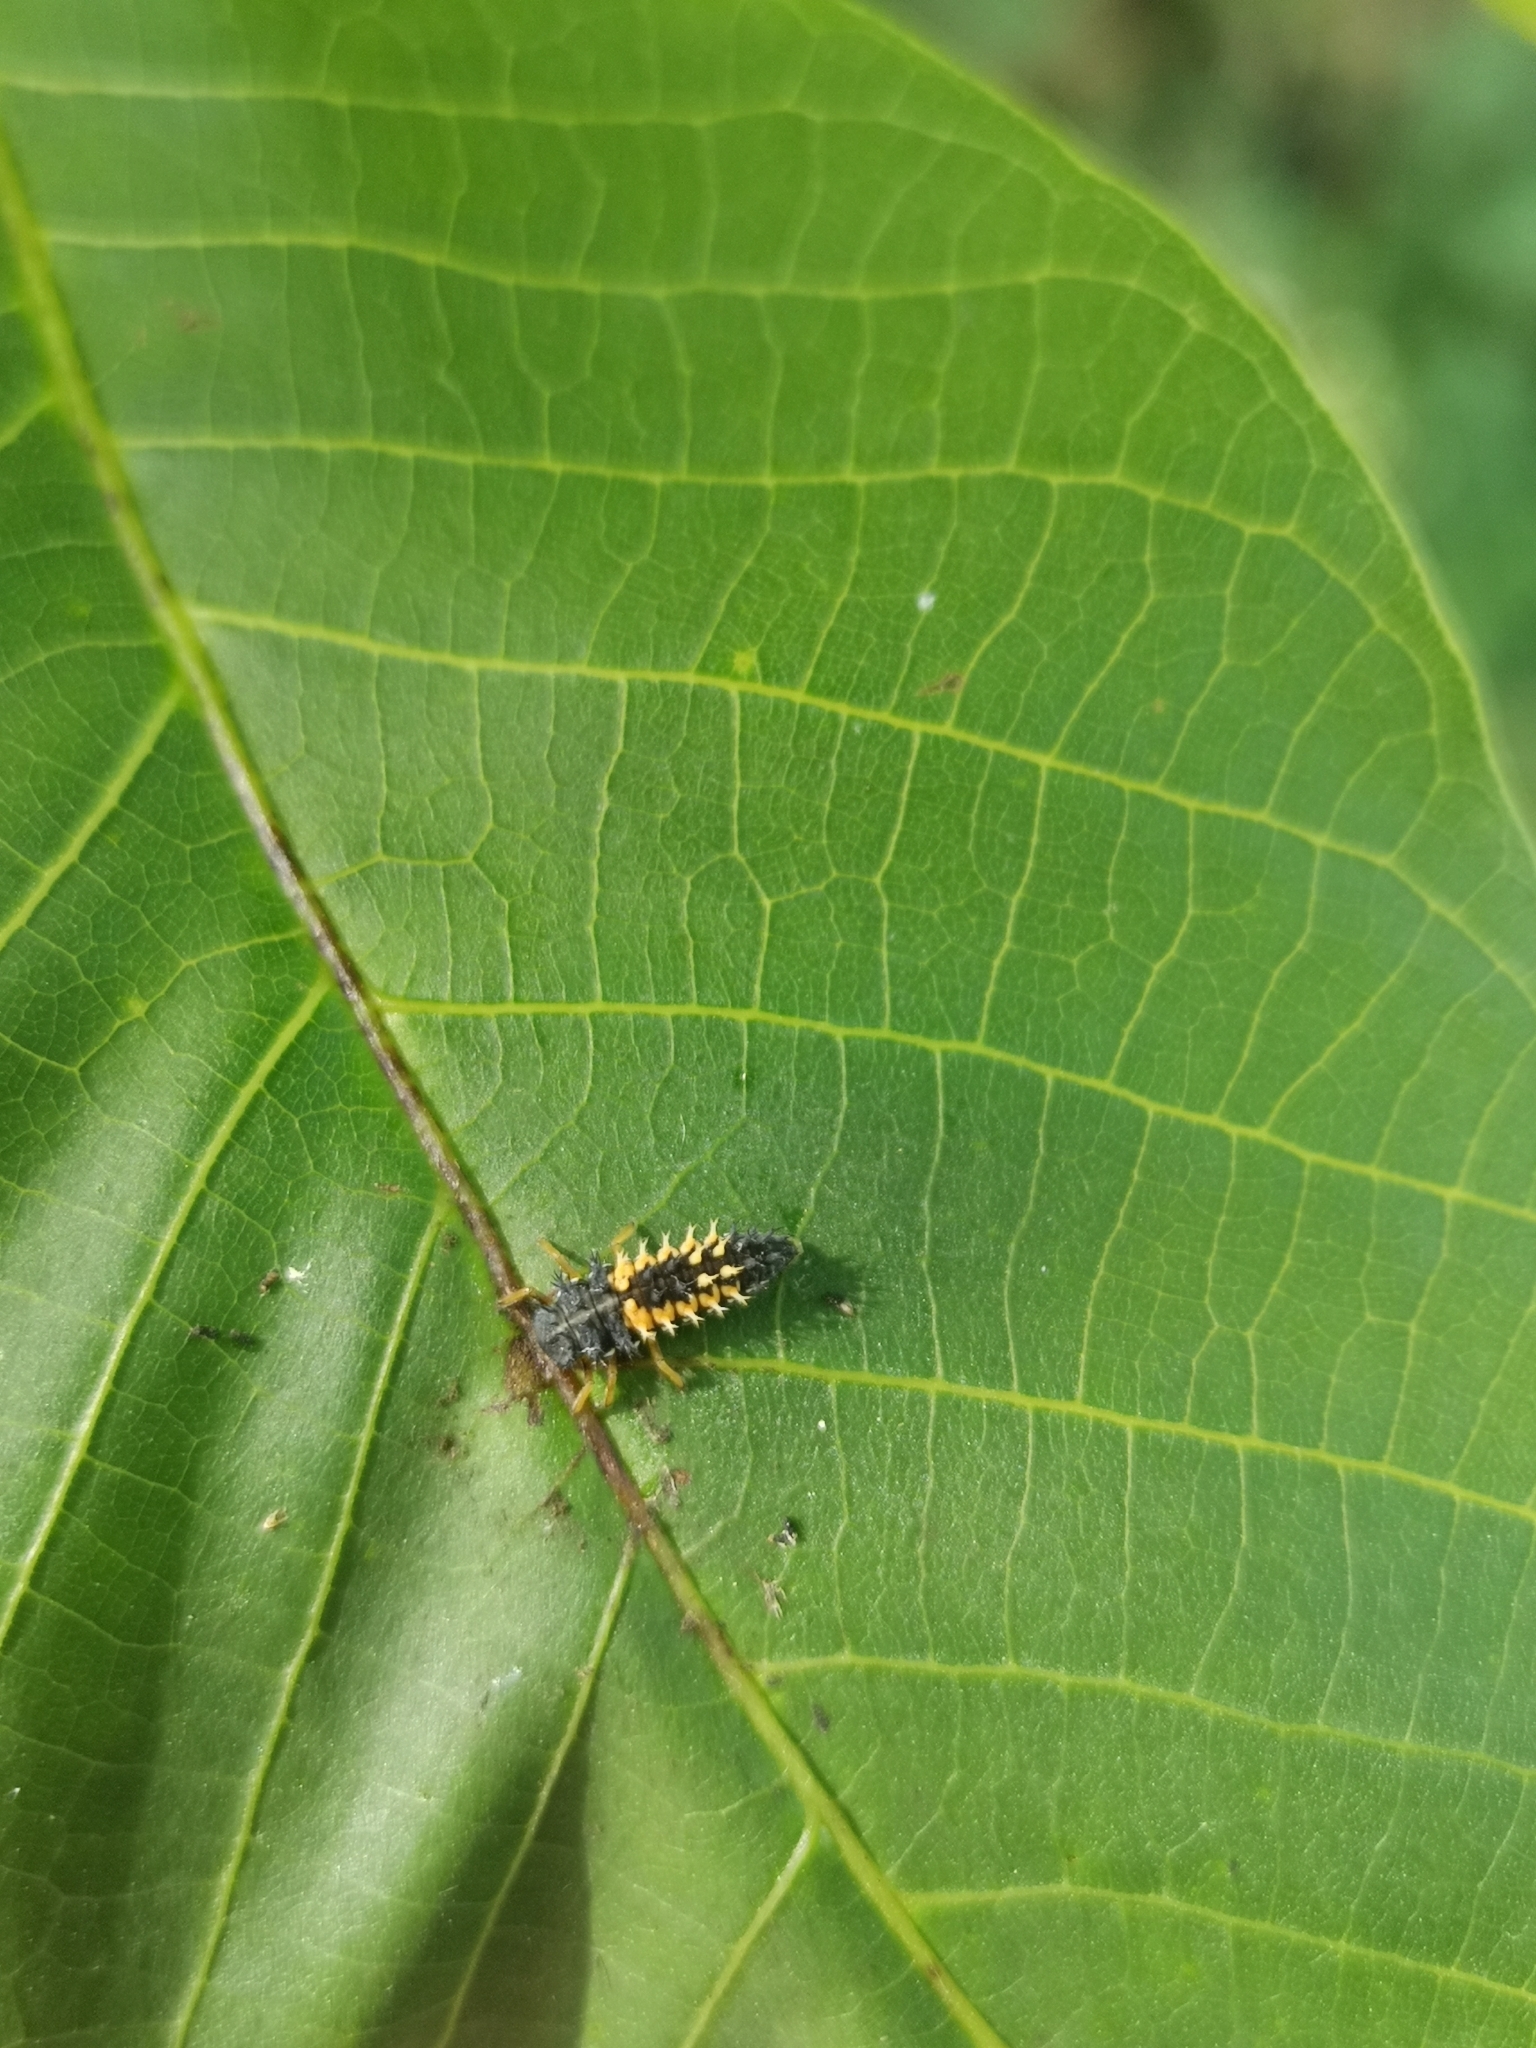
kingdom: Animalia
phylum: Arthropoda
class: Insecta
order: Coleoptera
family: Coccinellidae
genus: Harmonia
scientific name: Harmonia axyridis
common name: Harlequin ladybird
